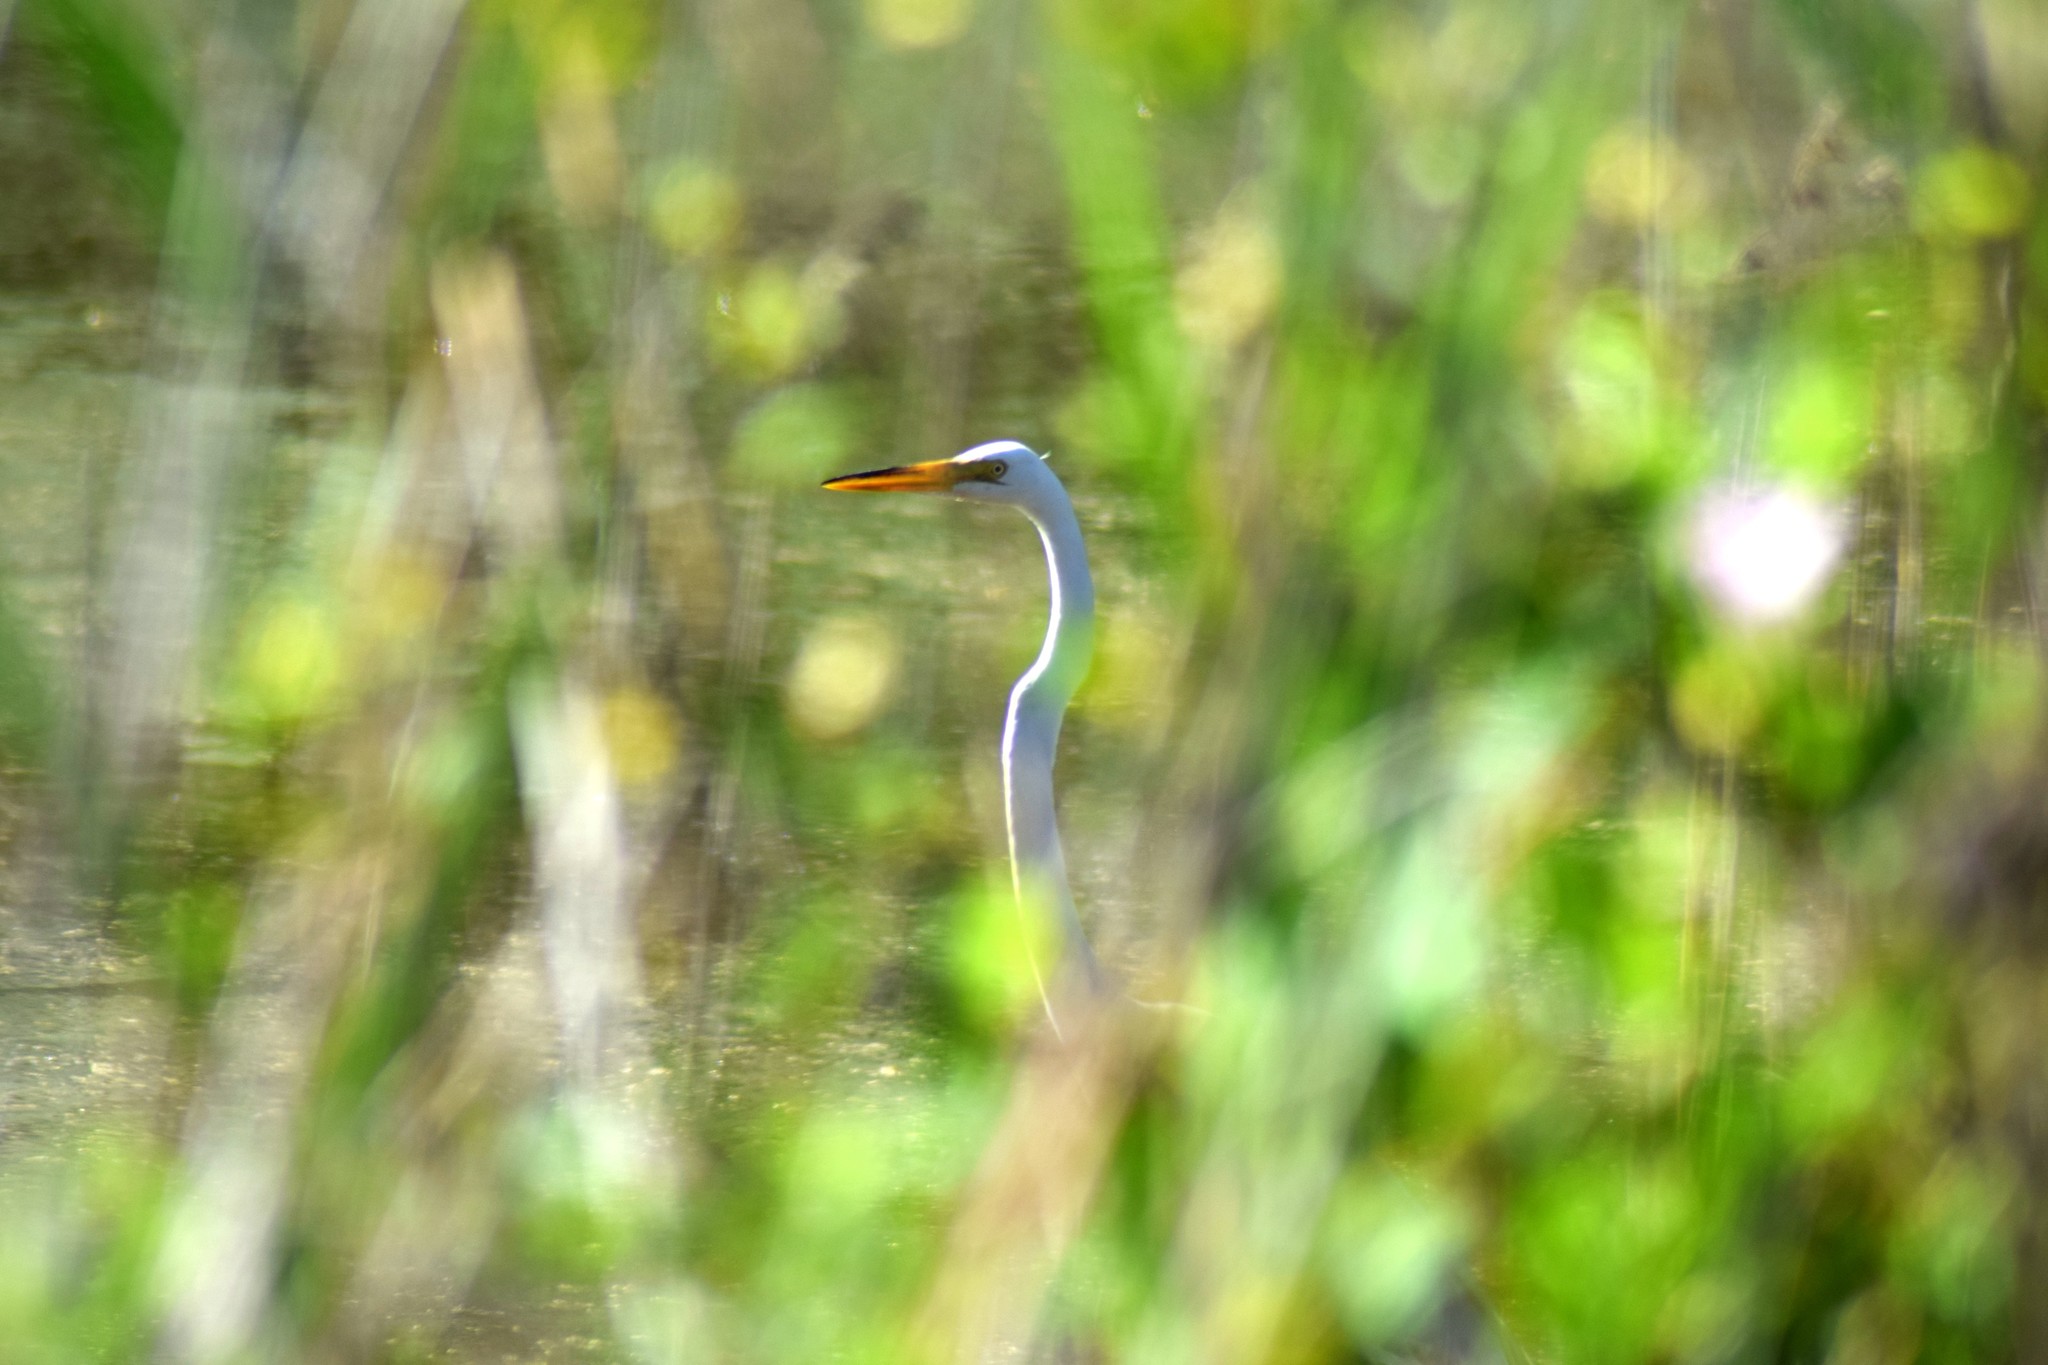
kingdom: Animalia
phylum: Chordata
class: Aves
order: Pelecaniformes
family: Ardeidae
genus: Ardea
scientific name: Ardea alba
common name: Great egret
